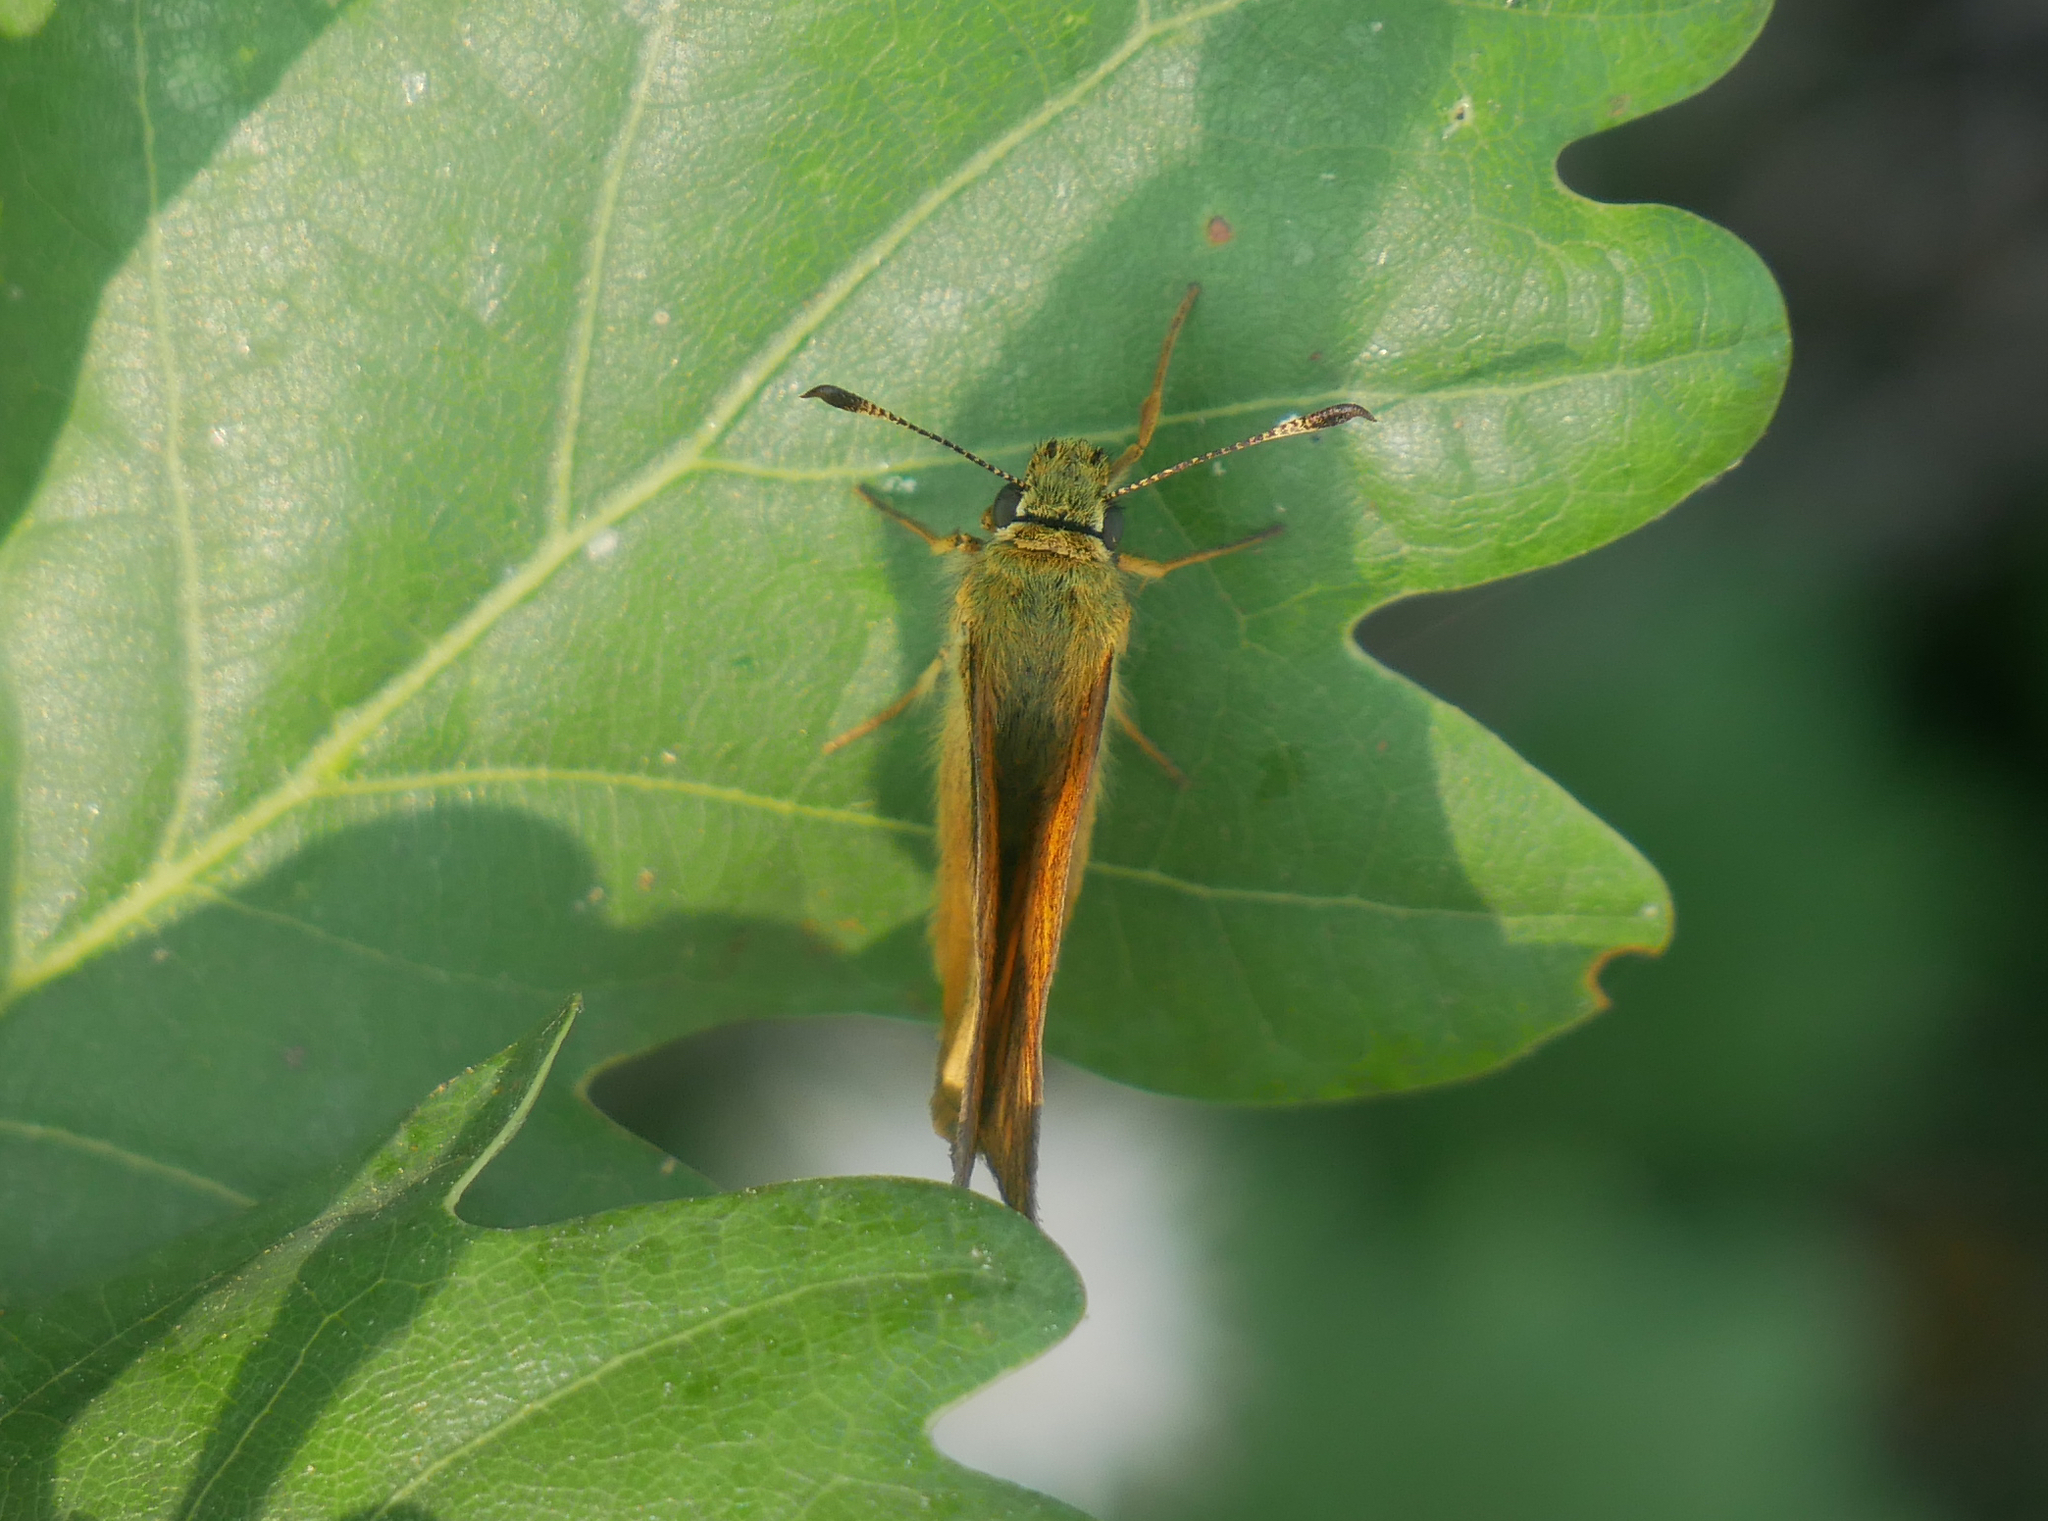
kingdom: Animalia
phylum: Arthropoda
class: Insecta
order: Lepidoptera
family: Hesperiidae
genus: Ochlodes
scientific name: Ochlodes venata
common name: Large skipper
